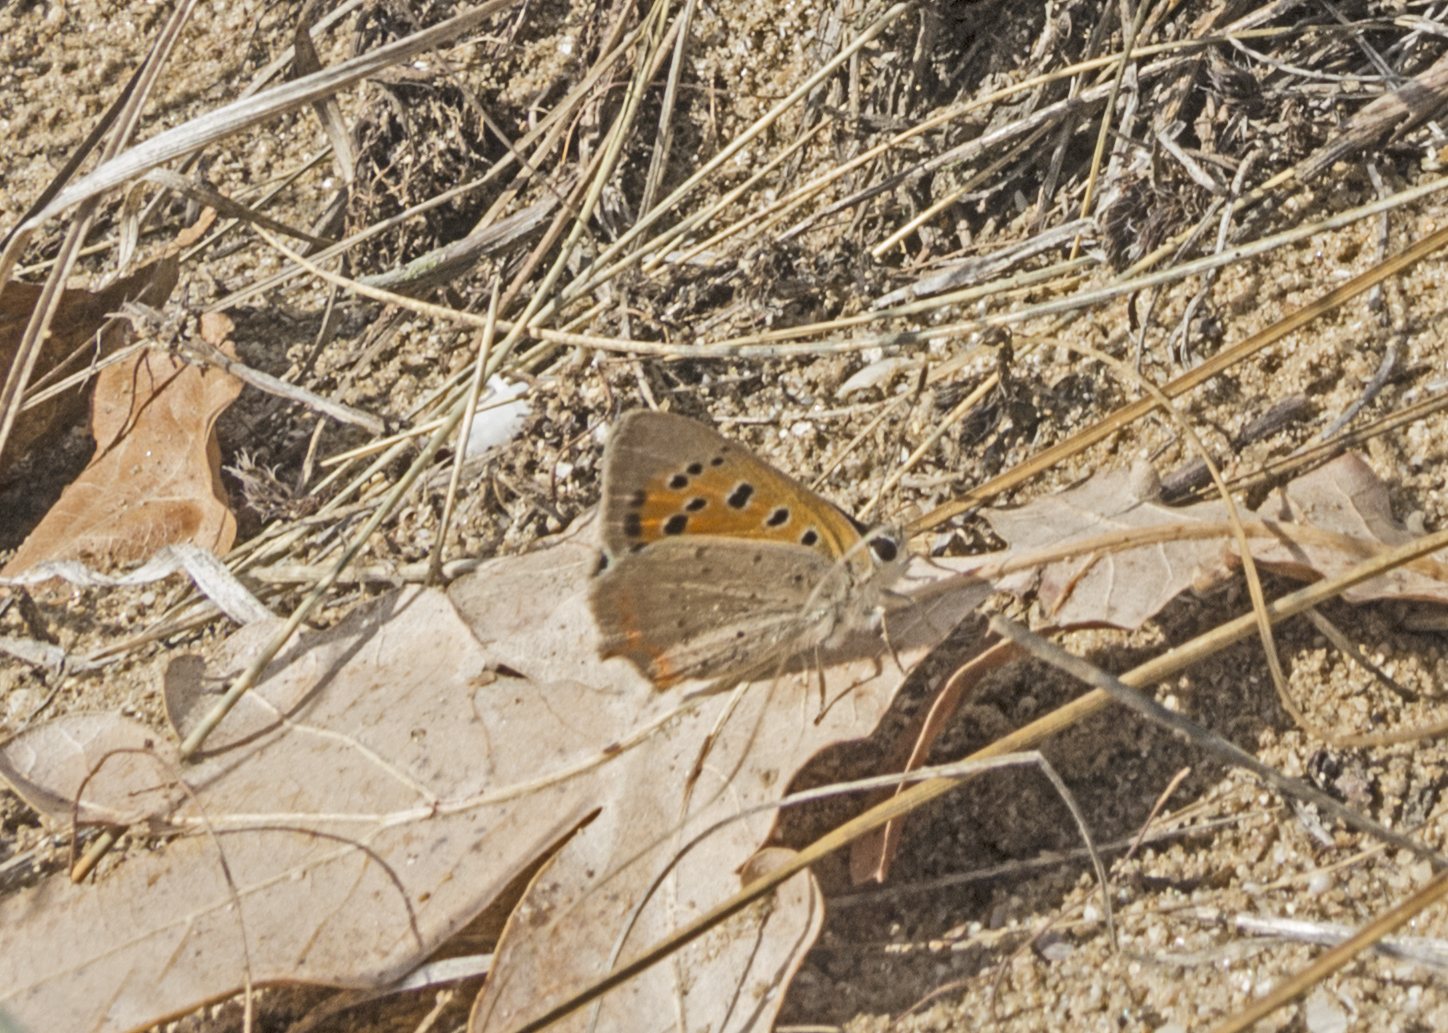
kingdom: Animalia
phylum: Arthropoda
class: Insecta
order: Lepidoptera
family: Lycaenidae
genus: Lycaena
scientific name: Lycaena phlaeas
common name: Small copper
